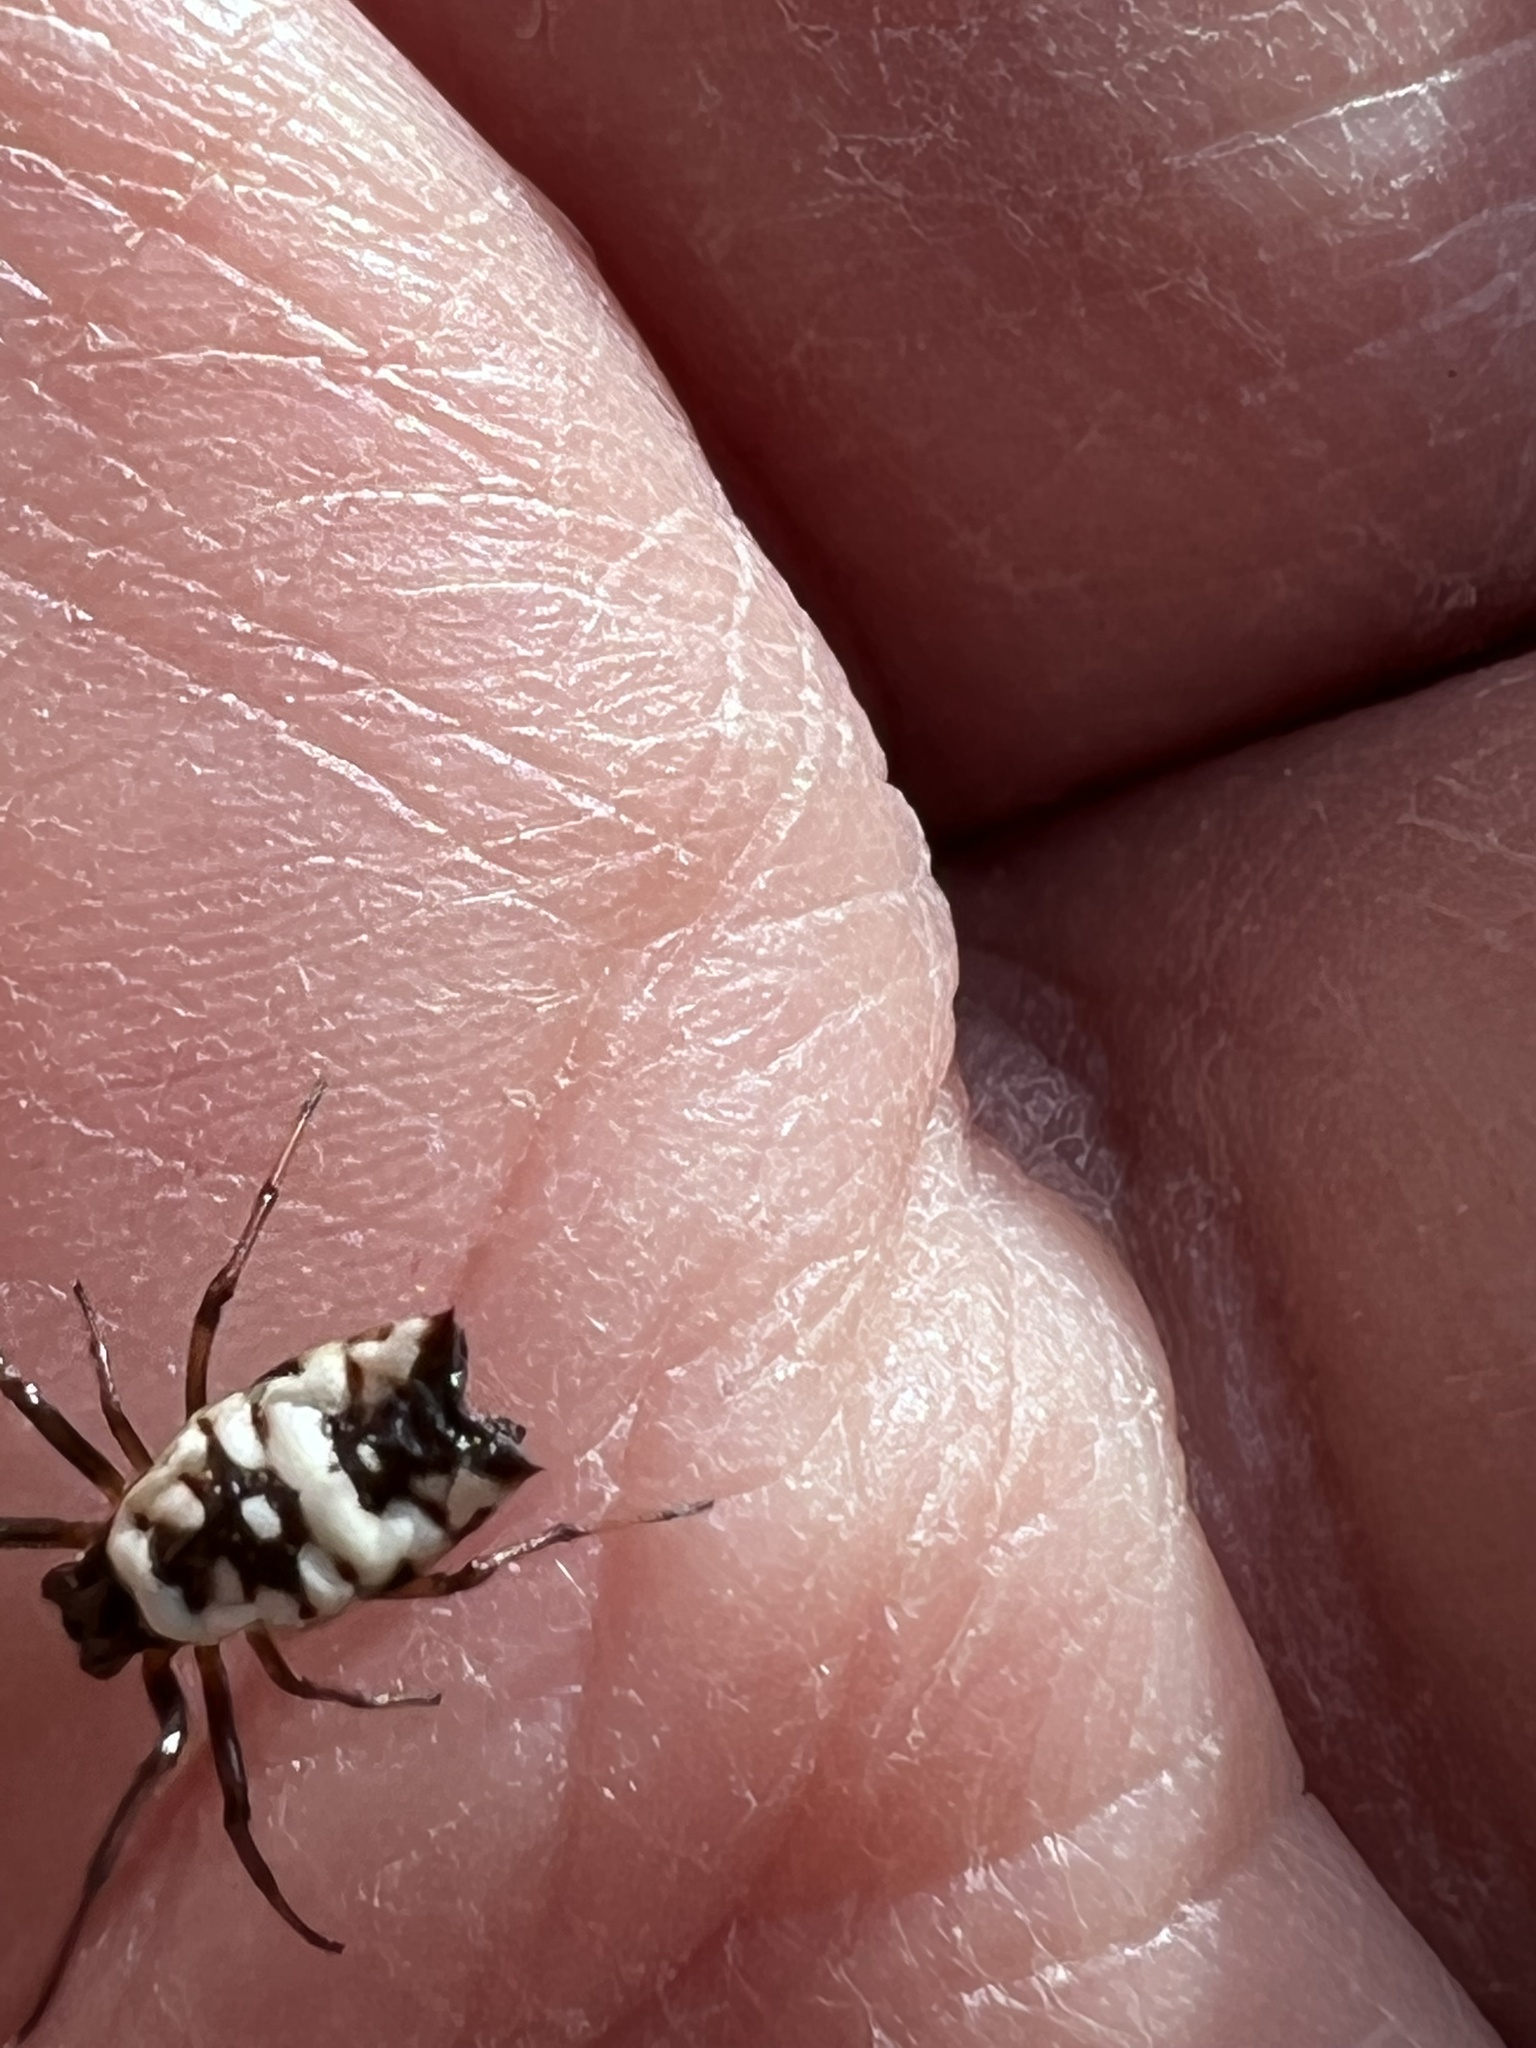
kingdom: Animalia
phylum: Arthropoda
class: Arachnida
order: Araneae
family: Araneidae
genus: Micrathena
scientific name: Micrathena mitrata
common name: Orb weavers
